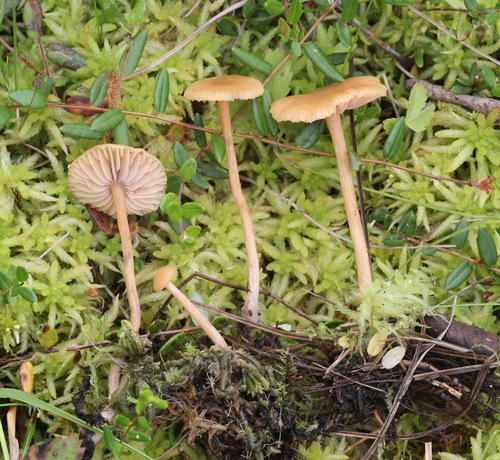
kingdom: Fungi
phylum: Basidiomycota
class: Agaricomycetes
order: Agaricales
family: Hydnangiaceae
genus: Laccaria
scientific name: Laccaria laccata
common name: Deceiver
